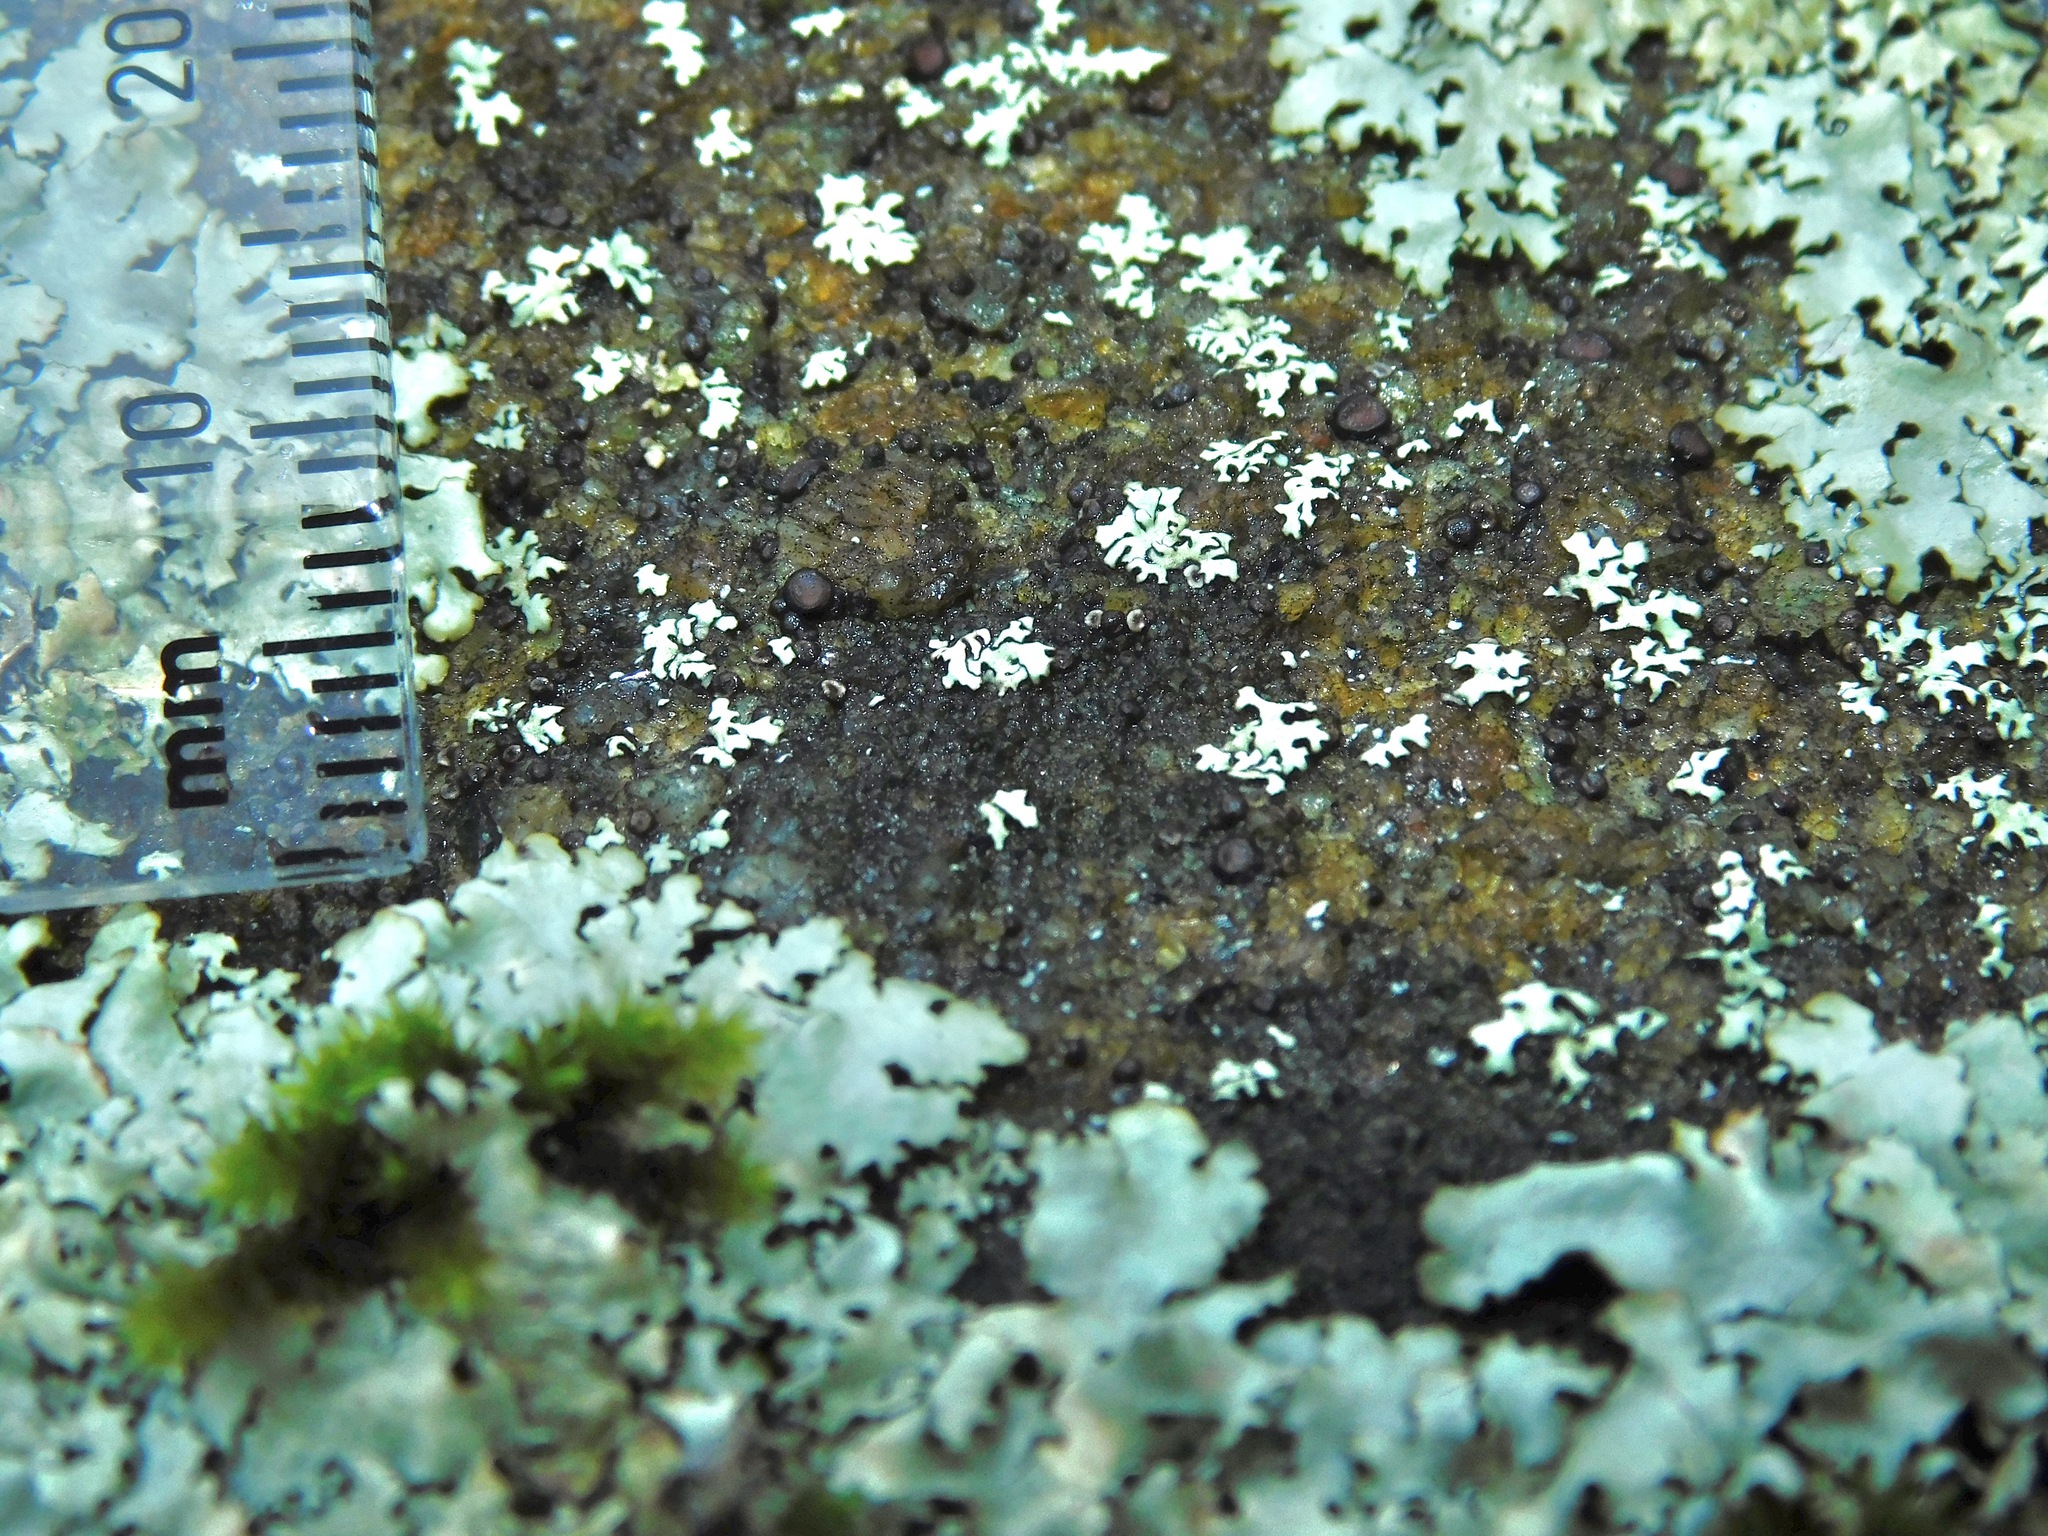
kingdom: Fungi
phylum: Ascomycota
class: Lecanoromycetes
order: Lecanorales
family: Lecanoraceae
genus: Lecidella
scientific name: Lecidella stigmatea
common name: Limestone disc lichen
